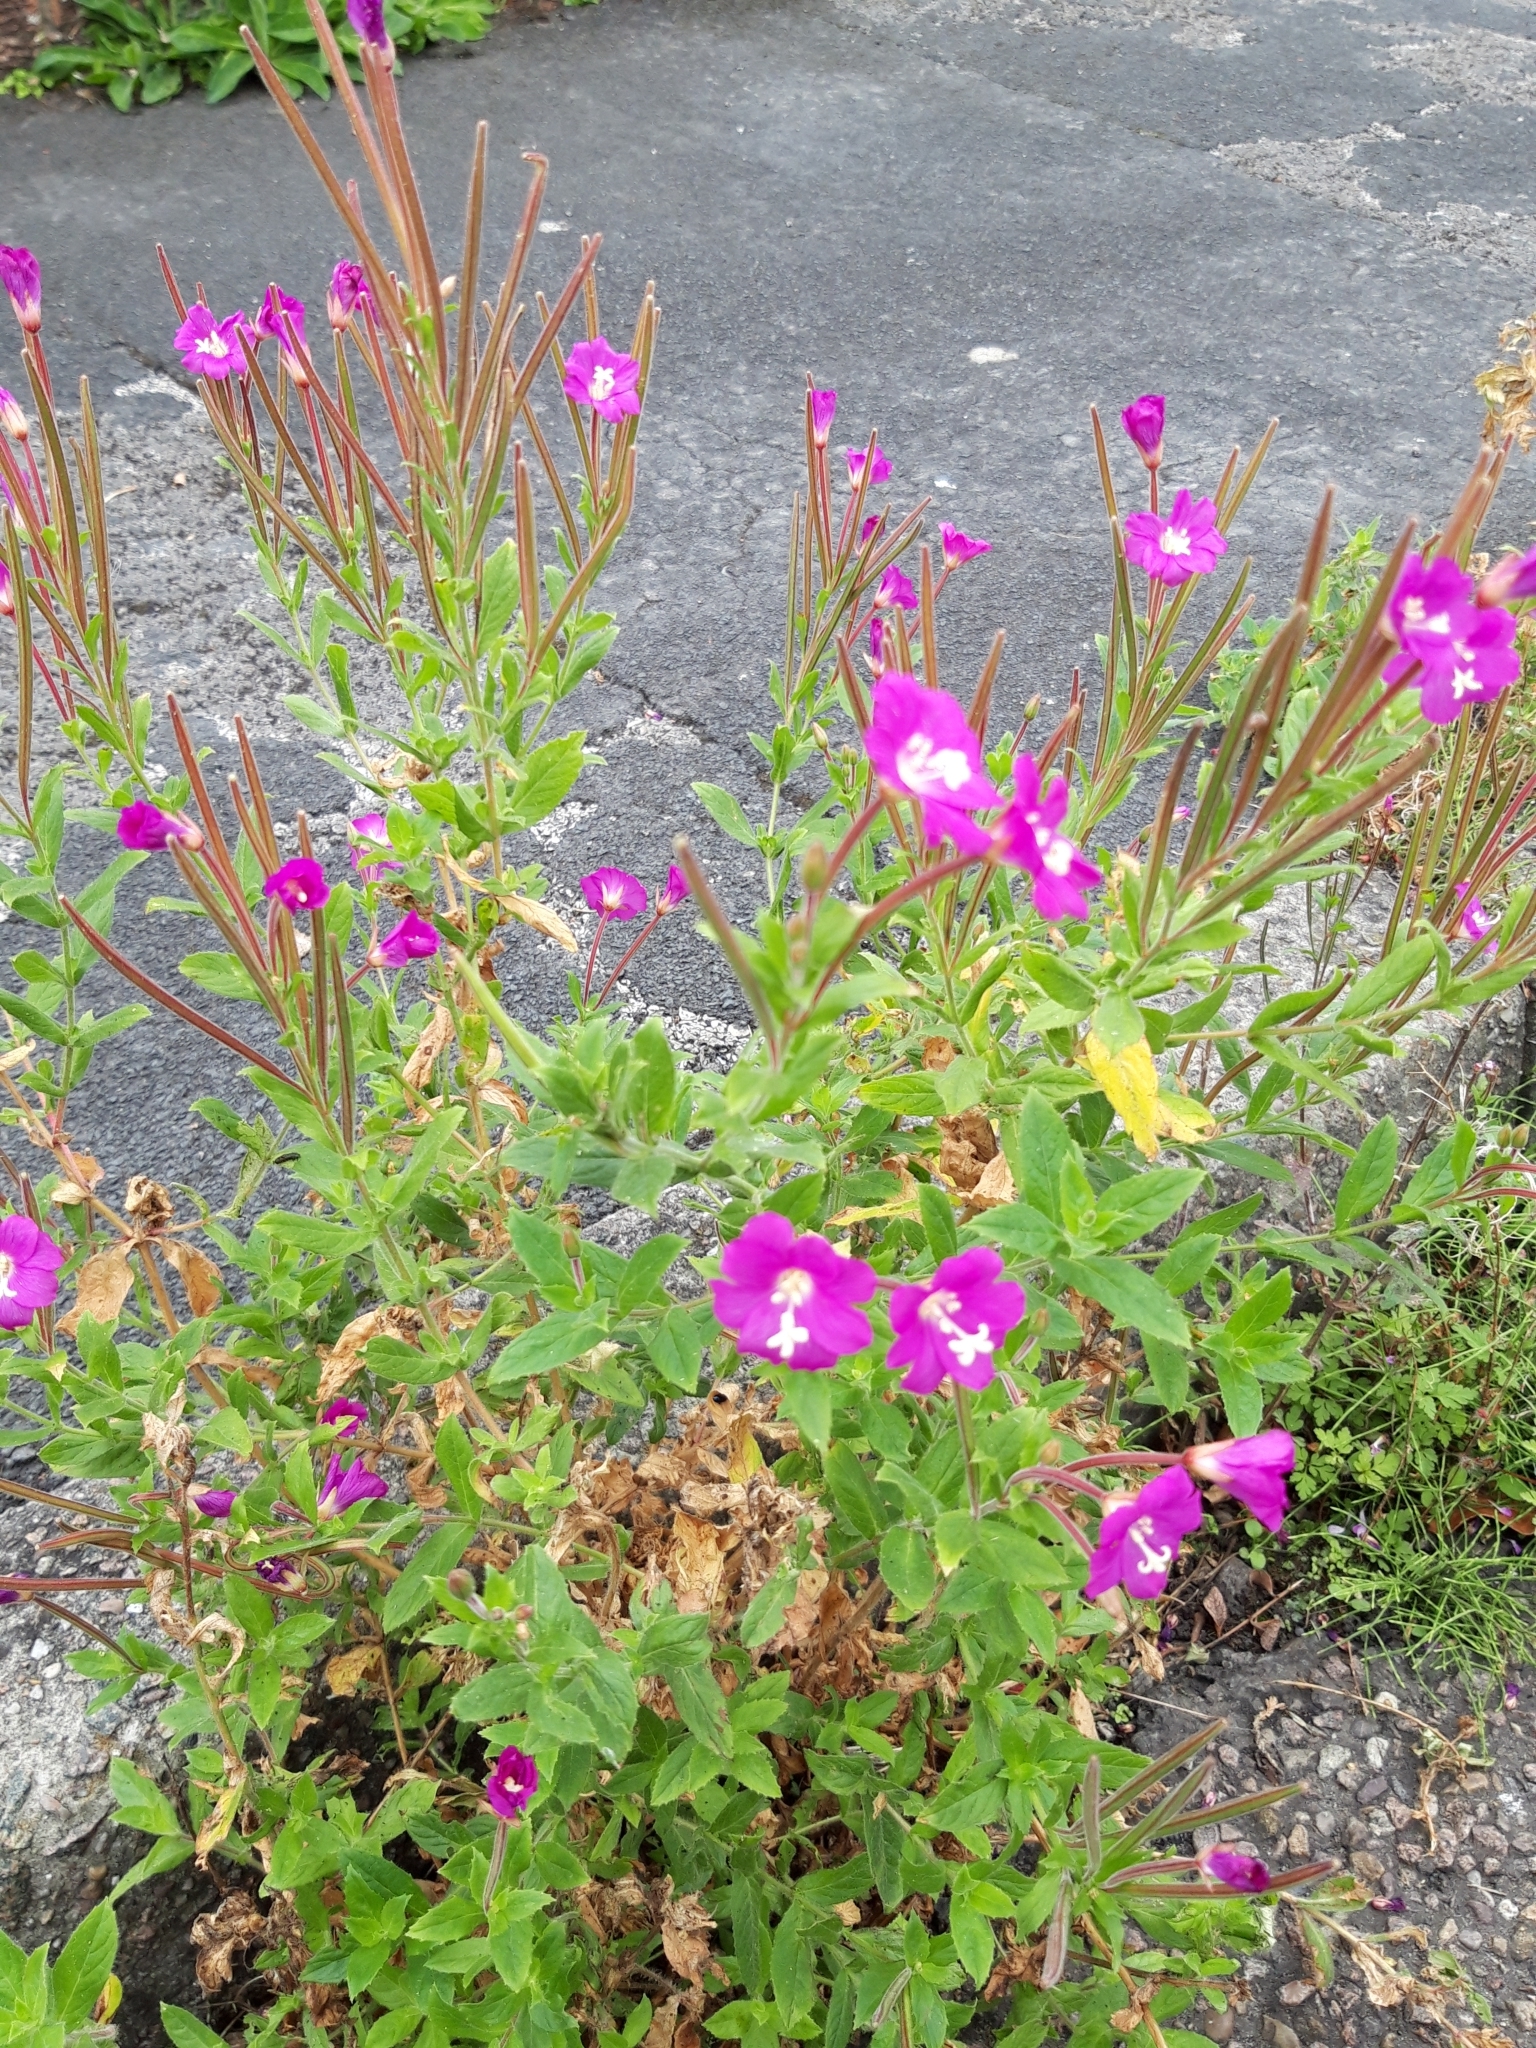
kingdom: Plantae
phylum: Tracheophyta
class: Magnoliopsida
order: Myrtales
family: Onagraceae
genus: Epilobium
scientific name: Epilobium hirsutum
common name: Great willowherb
